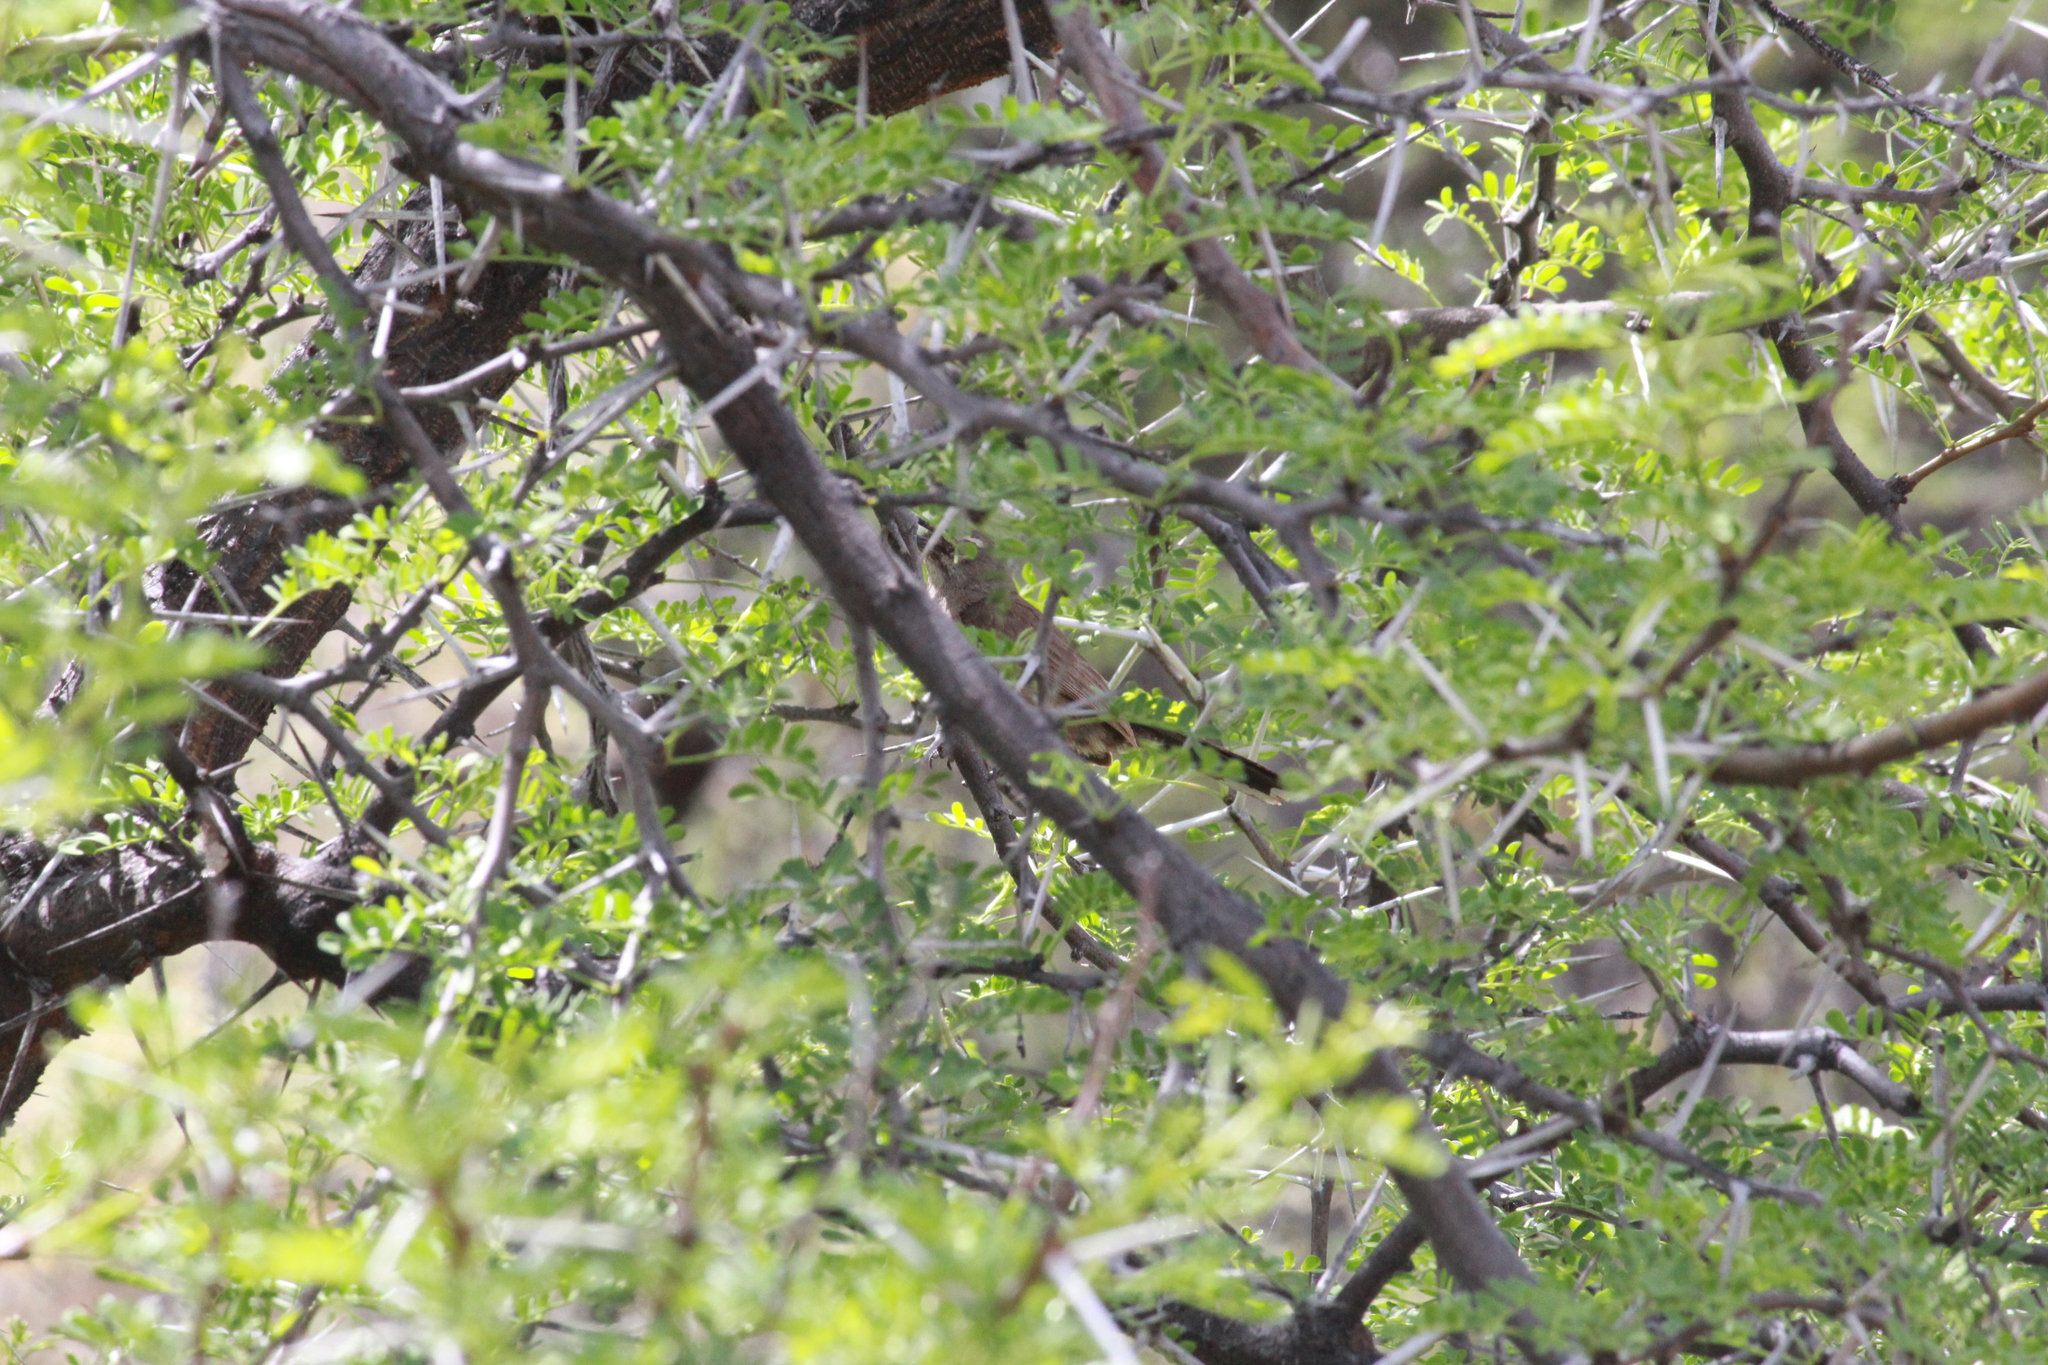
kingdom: Animalia
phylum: Chordata
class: Aves
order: Passeriformes
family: Muscicapidae
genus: Erythropygia
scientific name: Erythropygia coryphoeus
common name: Karoo scrub robin
